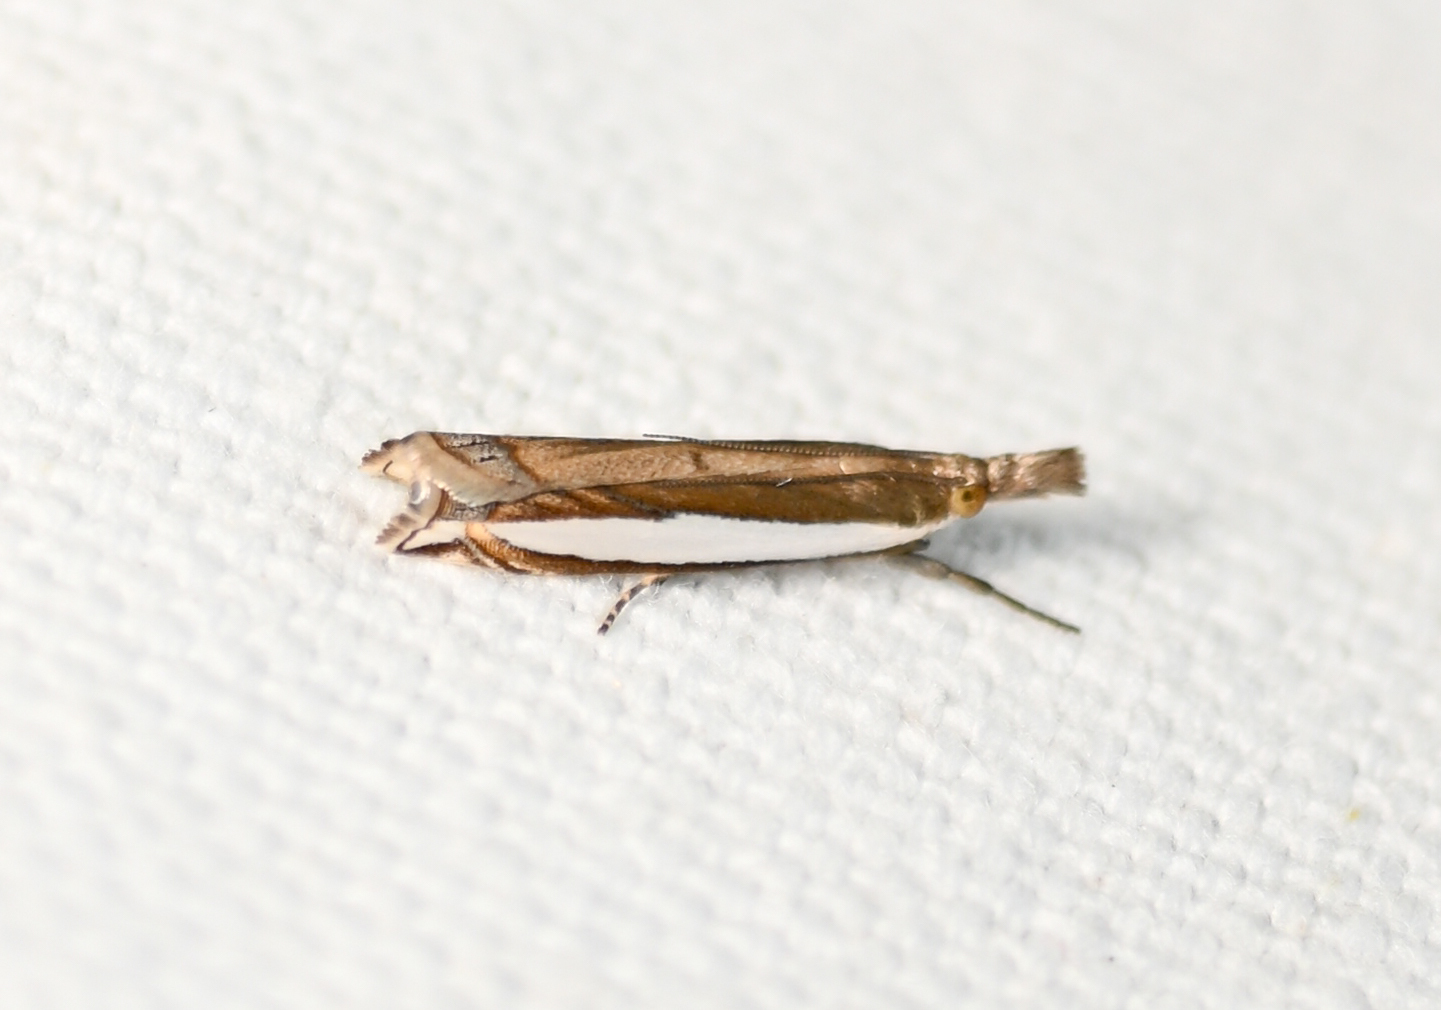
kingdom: Animalia
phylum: Arthropoda
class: Insecta
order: Lepidoptera
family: Crambidae
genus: Crambus
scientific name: Crambus quinquareatus
